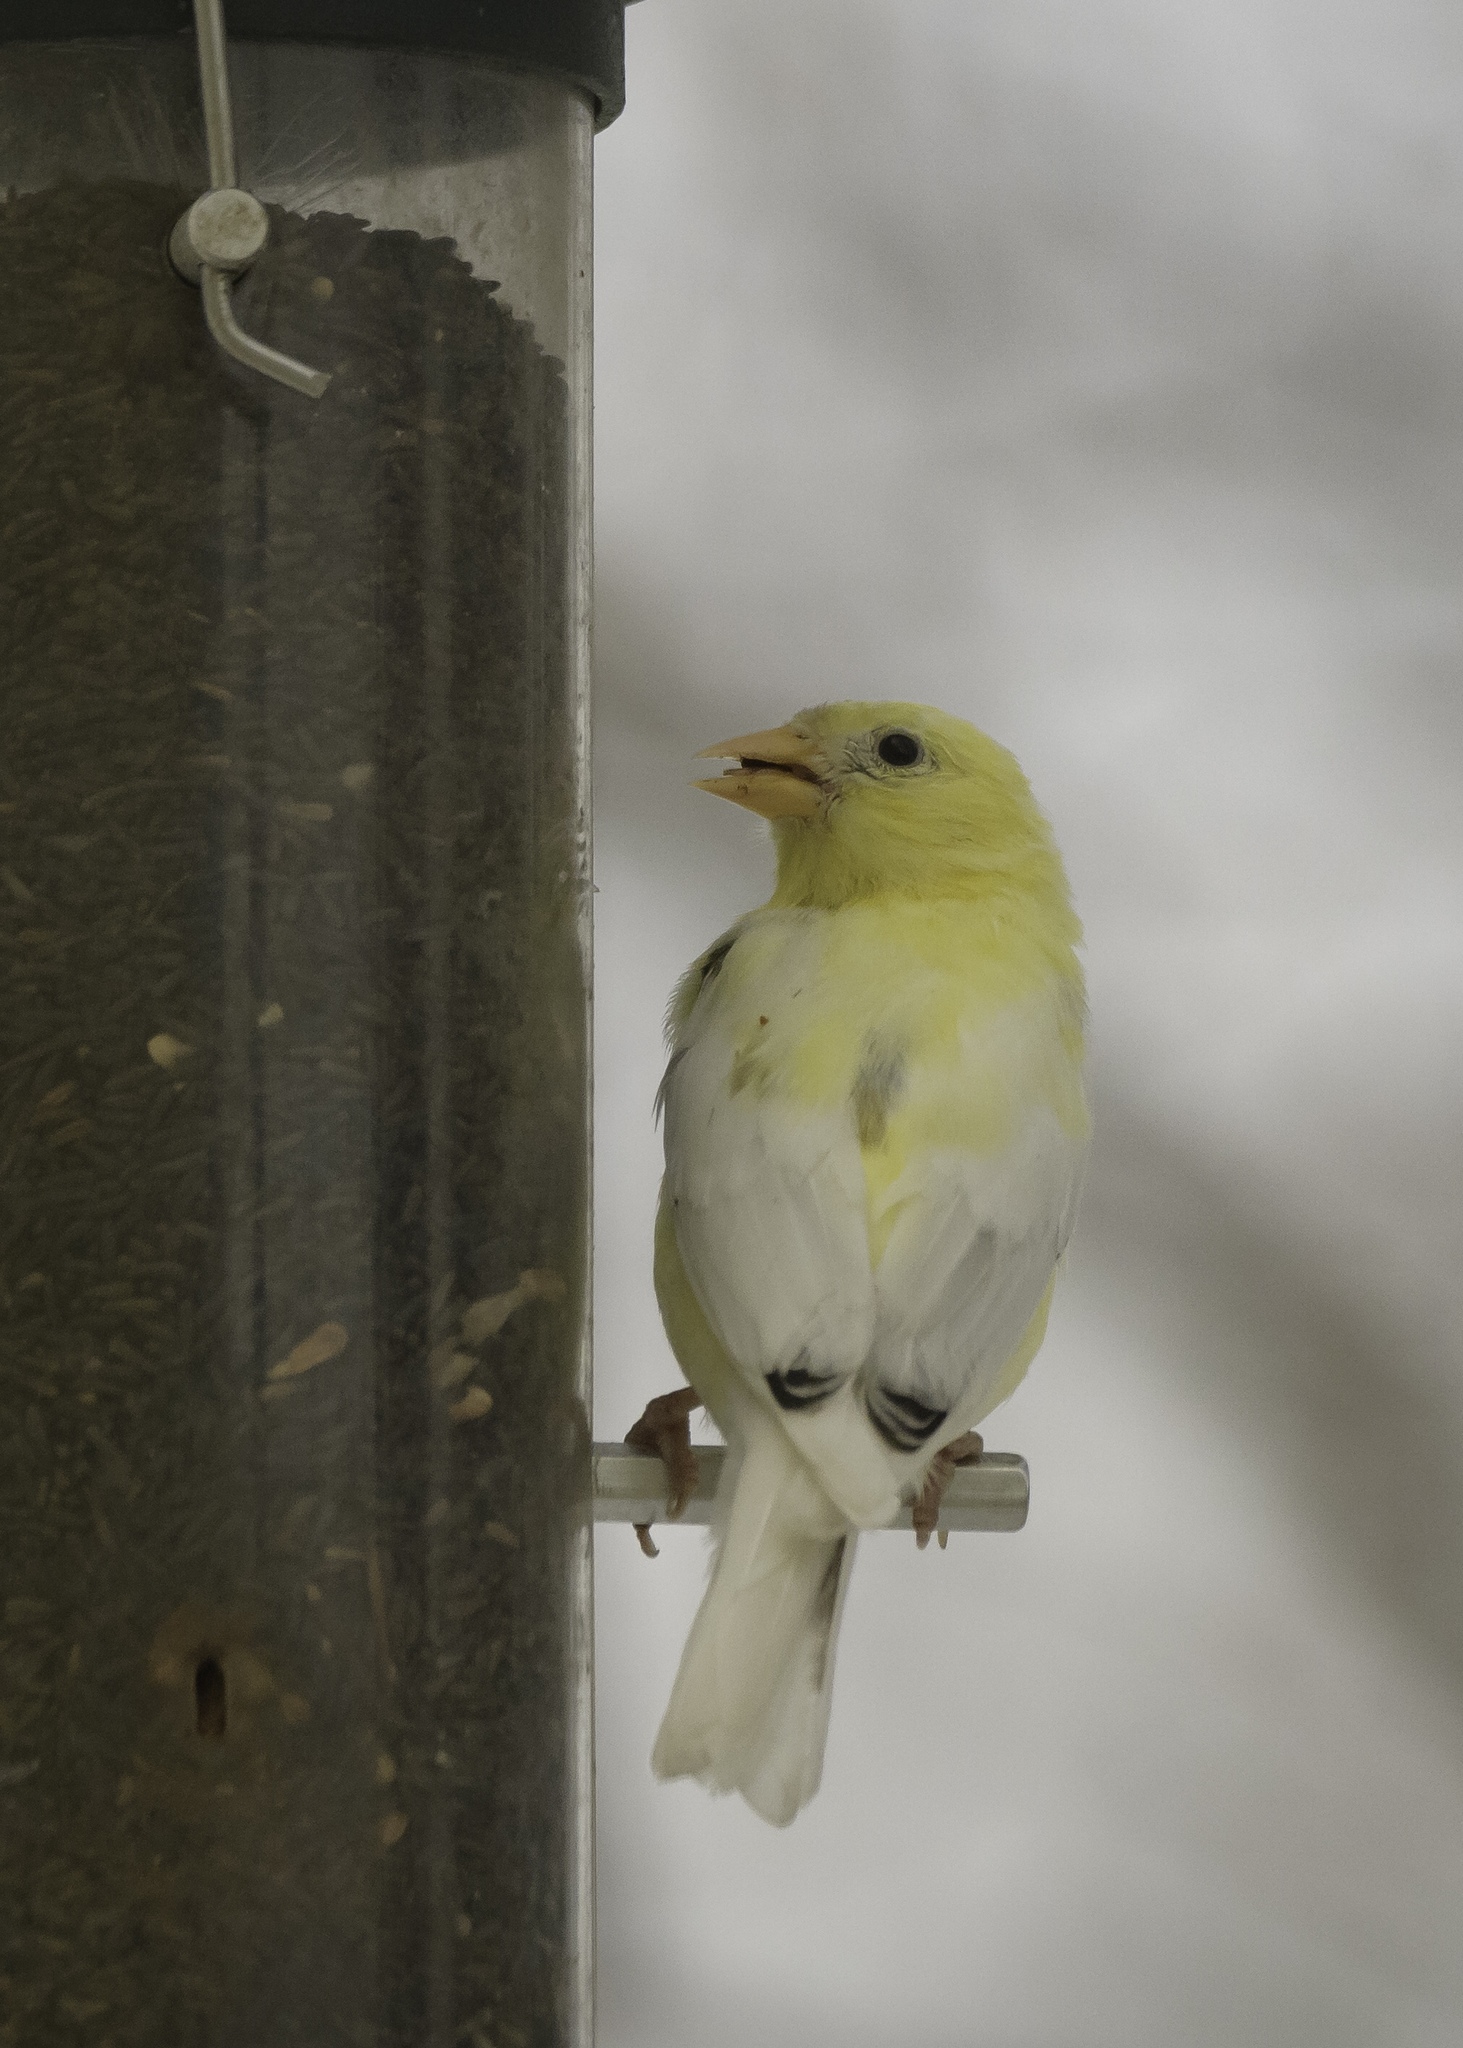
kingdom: Animalia
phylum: Chordata
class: Aves
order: Passeriformes
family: Fringillidae
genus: Spinus
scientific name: Spinus tristis
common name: American goldfinch
